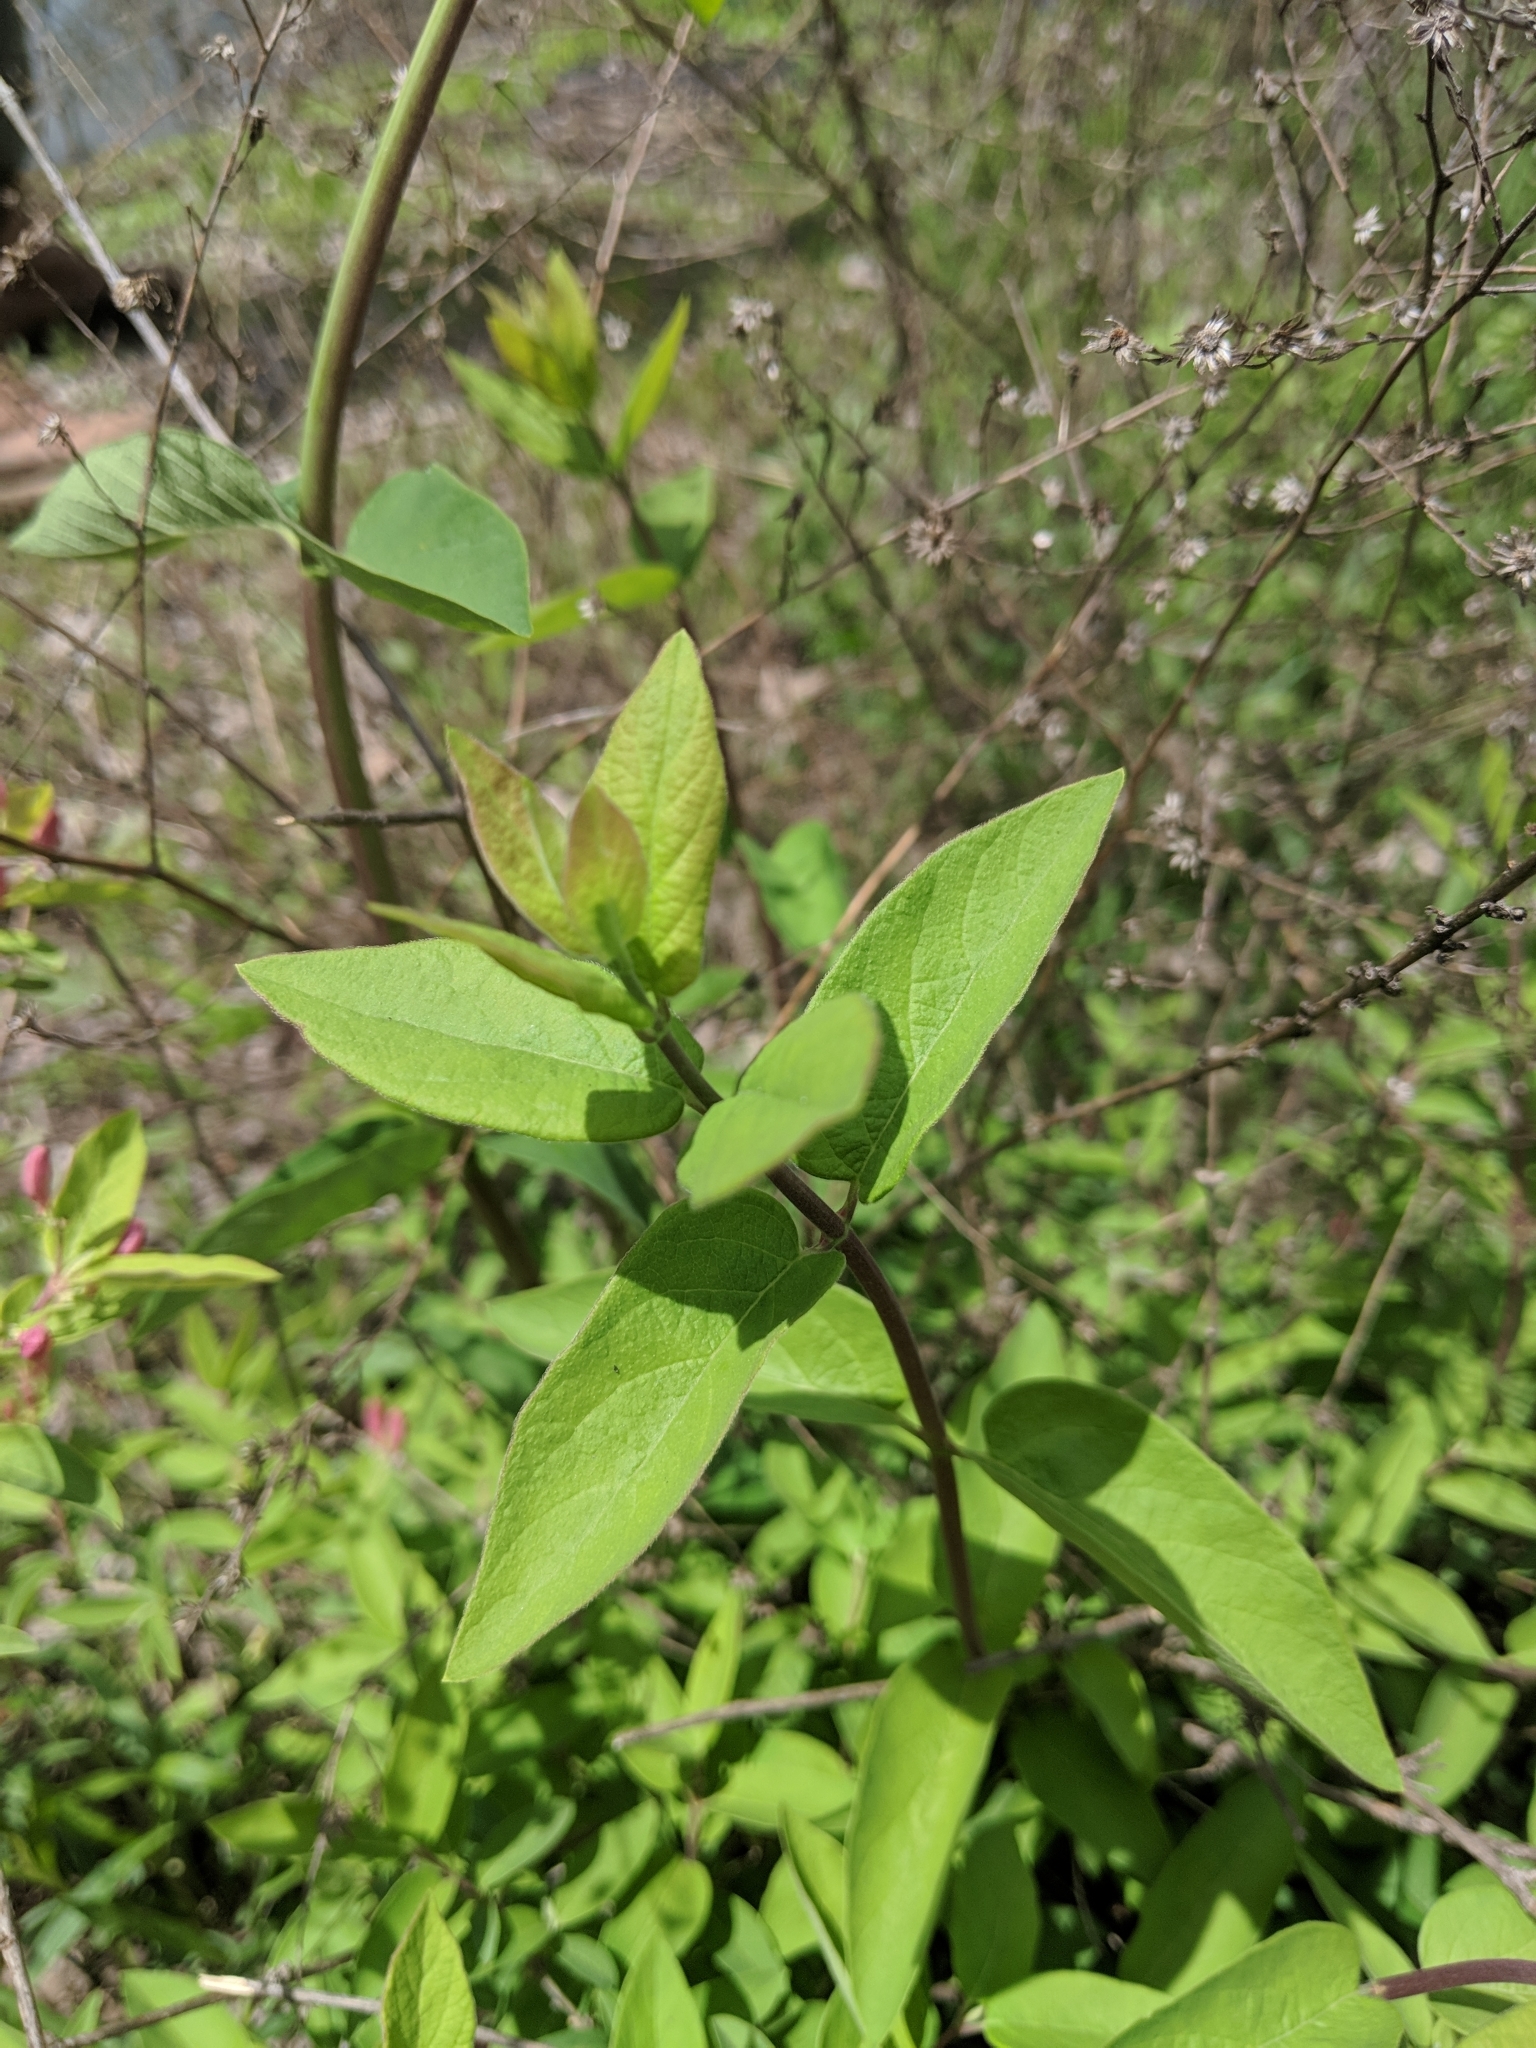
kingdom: Plantae
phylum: Tracheophyta
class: Magnoliopsida
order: Dipsacales
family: Caprifoliaceae
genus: Lonicera
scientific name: Lonicera tatarica
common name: Tatarian honeysuckle
